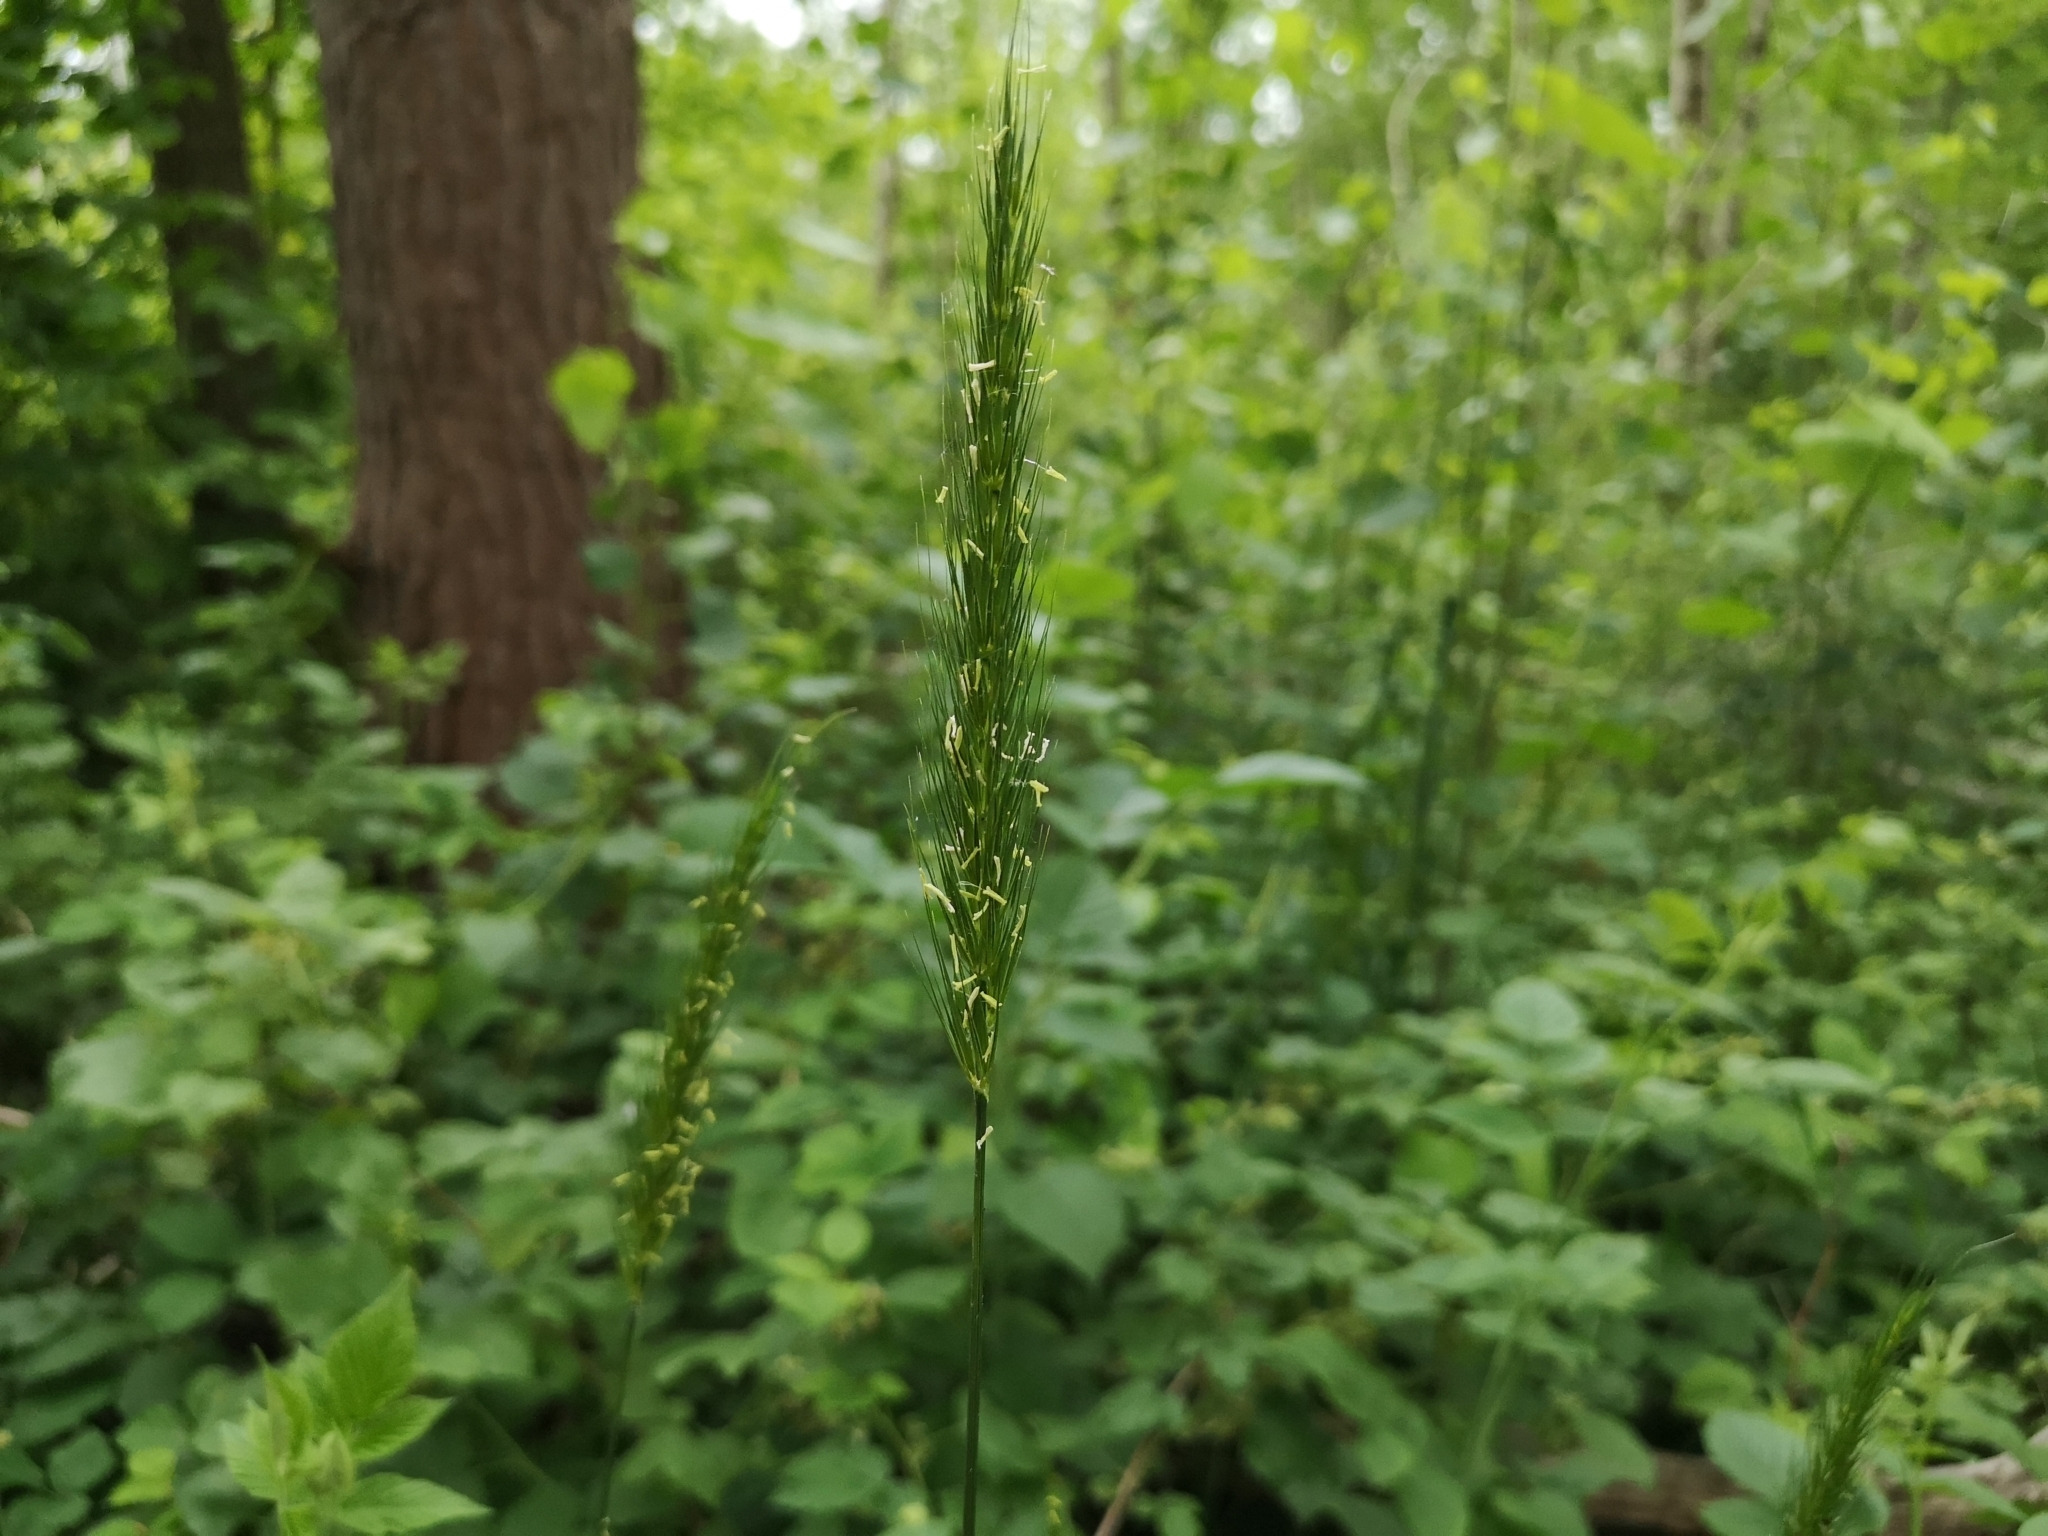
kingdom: Plantae
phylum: Tracheophyta
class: Liliopsida
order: Poales
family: Poaceae
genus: Hordelymus
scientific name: Hordelymus europaeus
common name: Wood-barley
